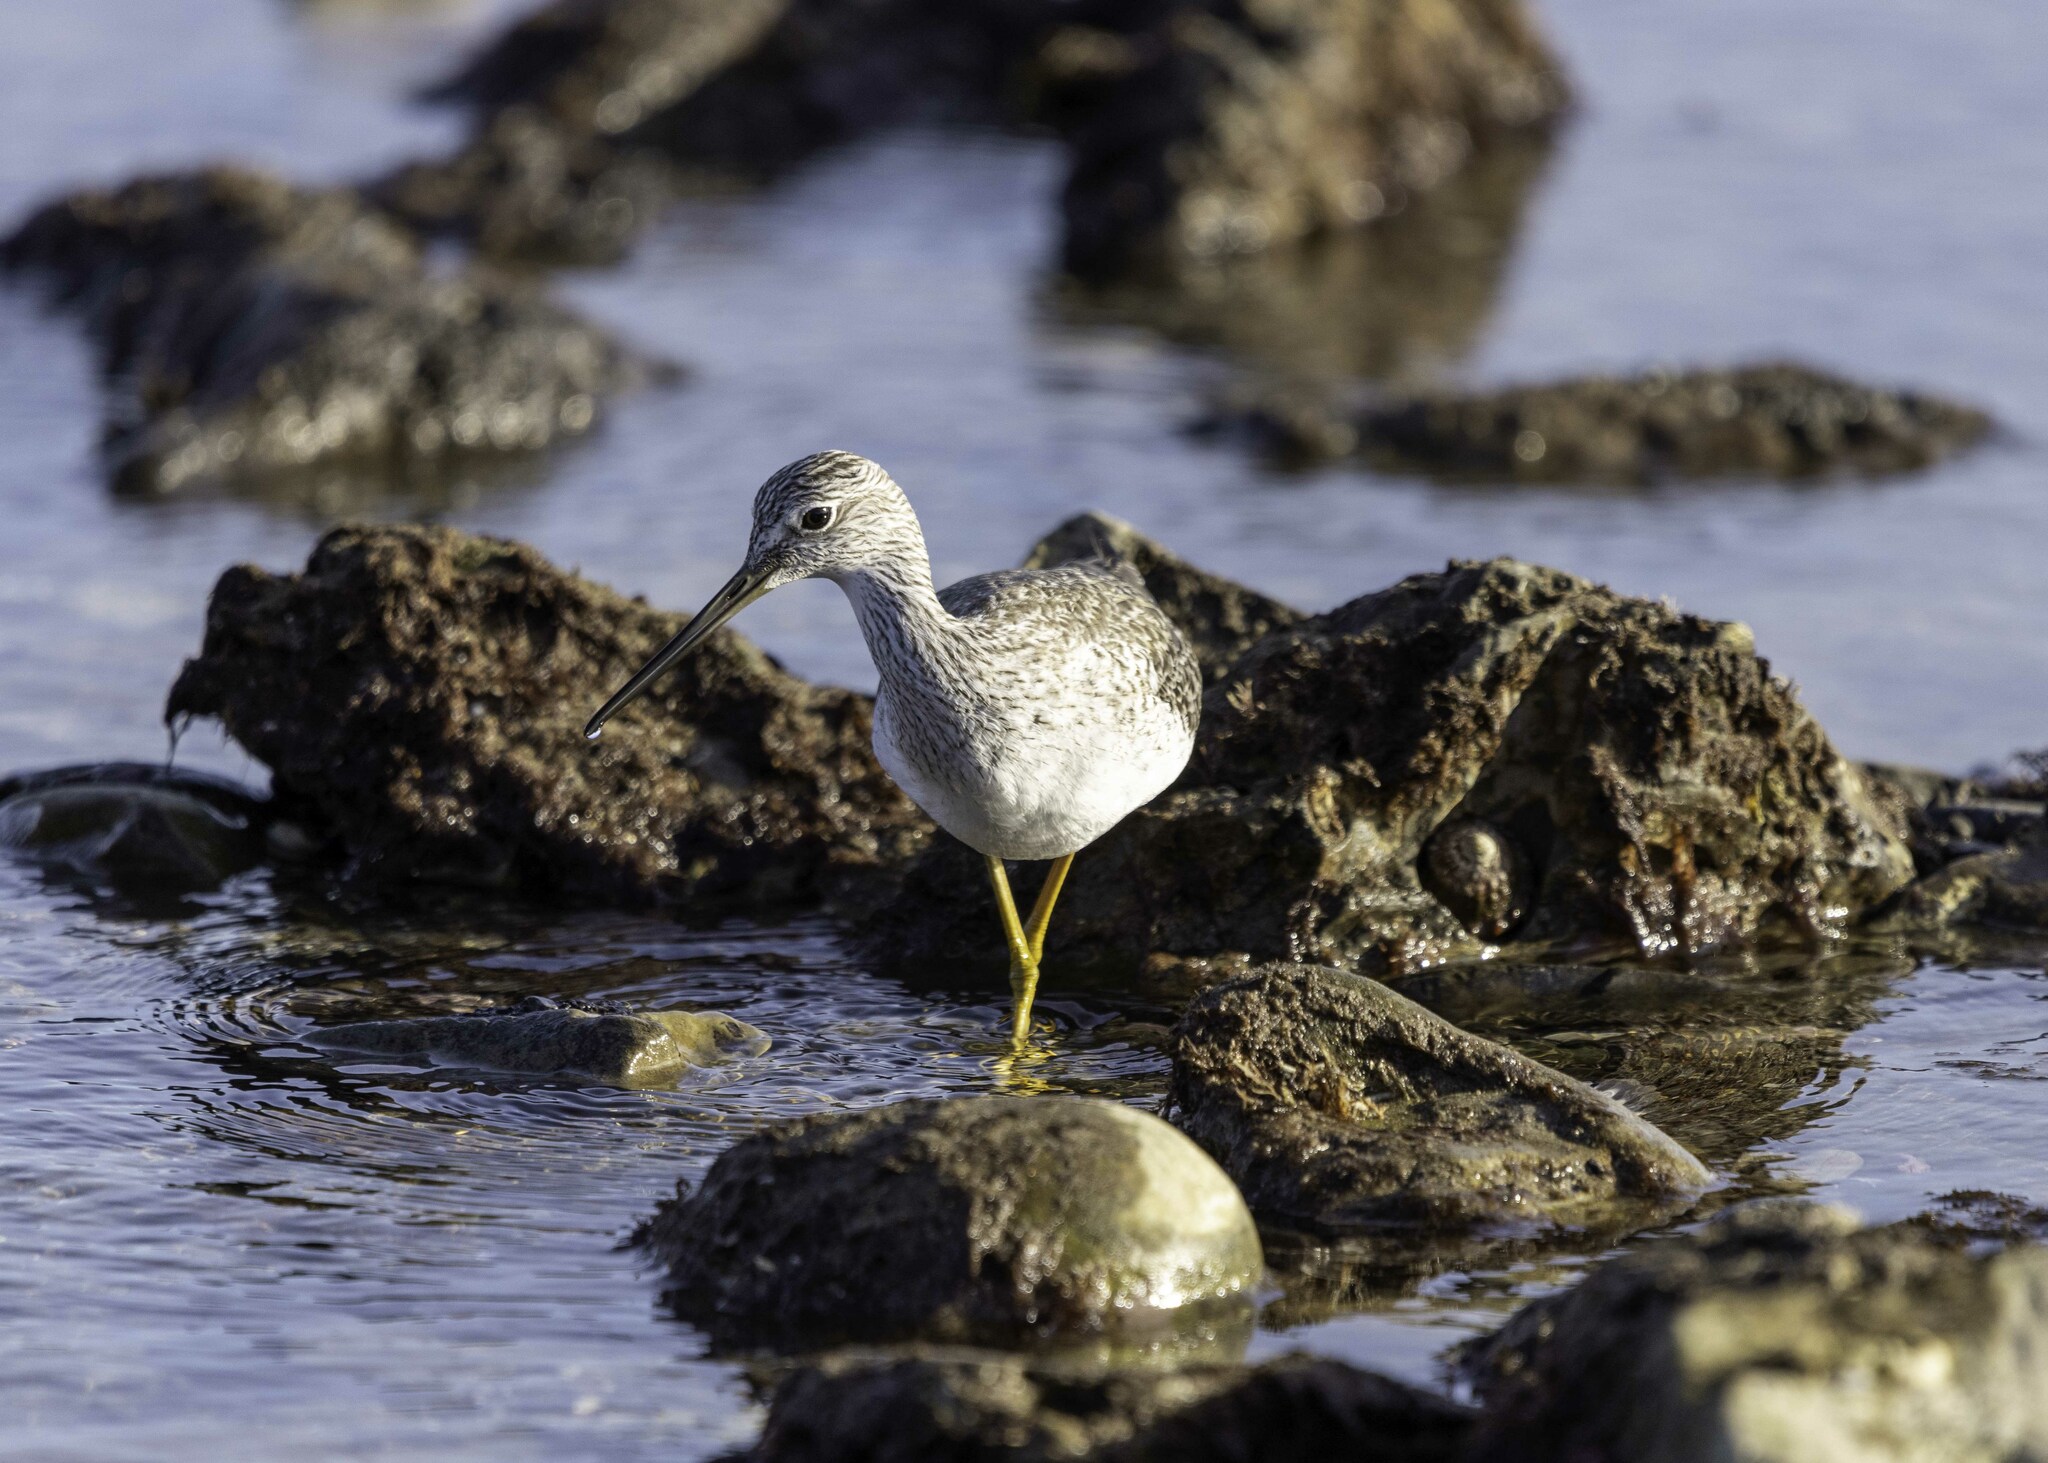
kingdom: Animalia
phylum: Chordata
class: Aves
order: Charadriiformes
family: Scolopacidae
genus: Tringa
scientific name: Tringa melanoleuca
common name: Greater yellowlegs
